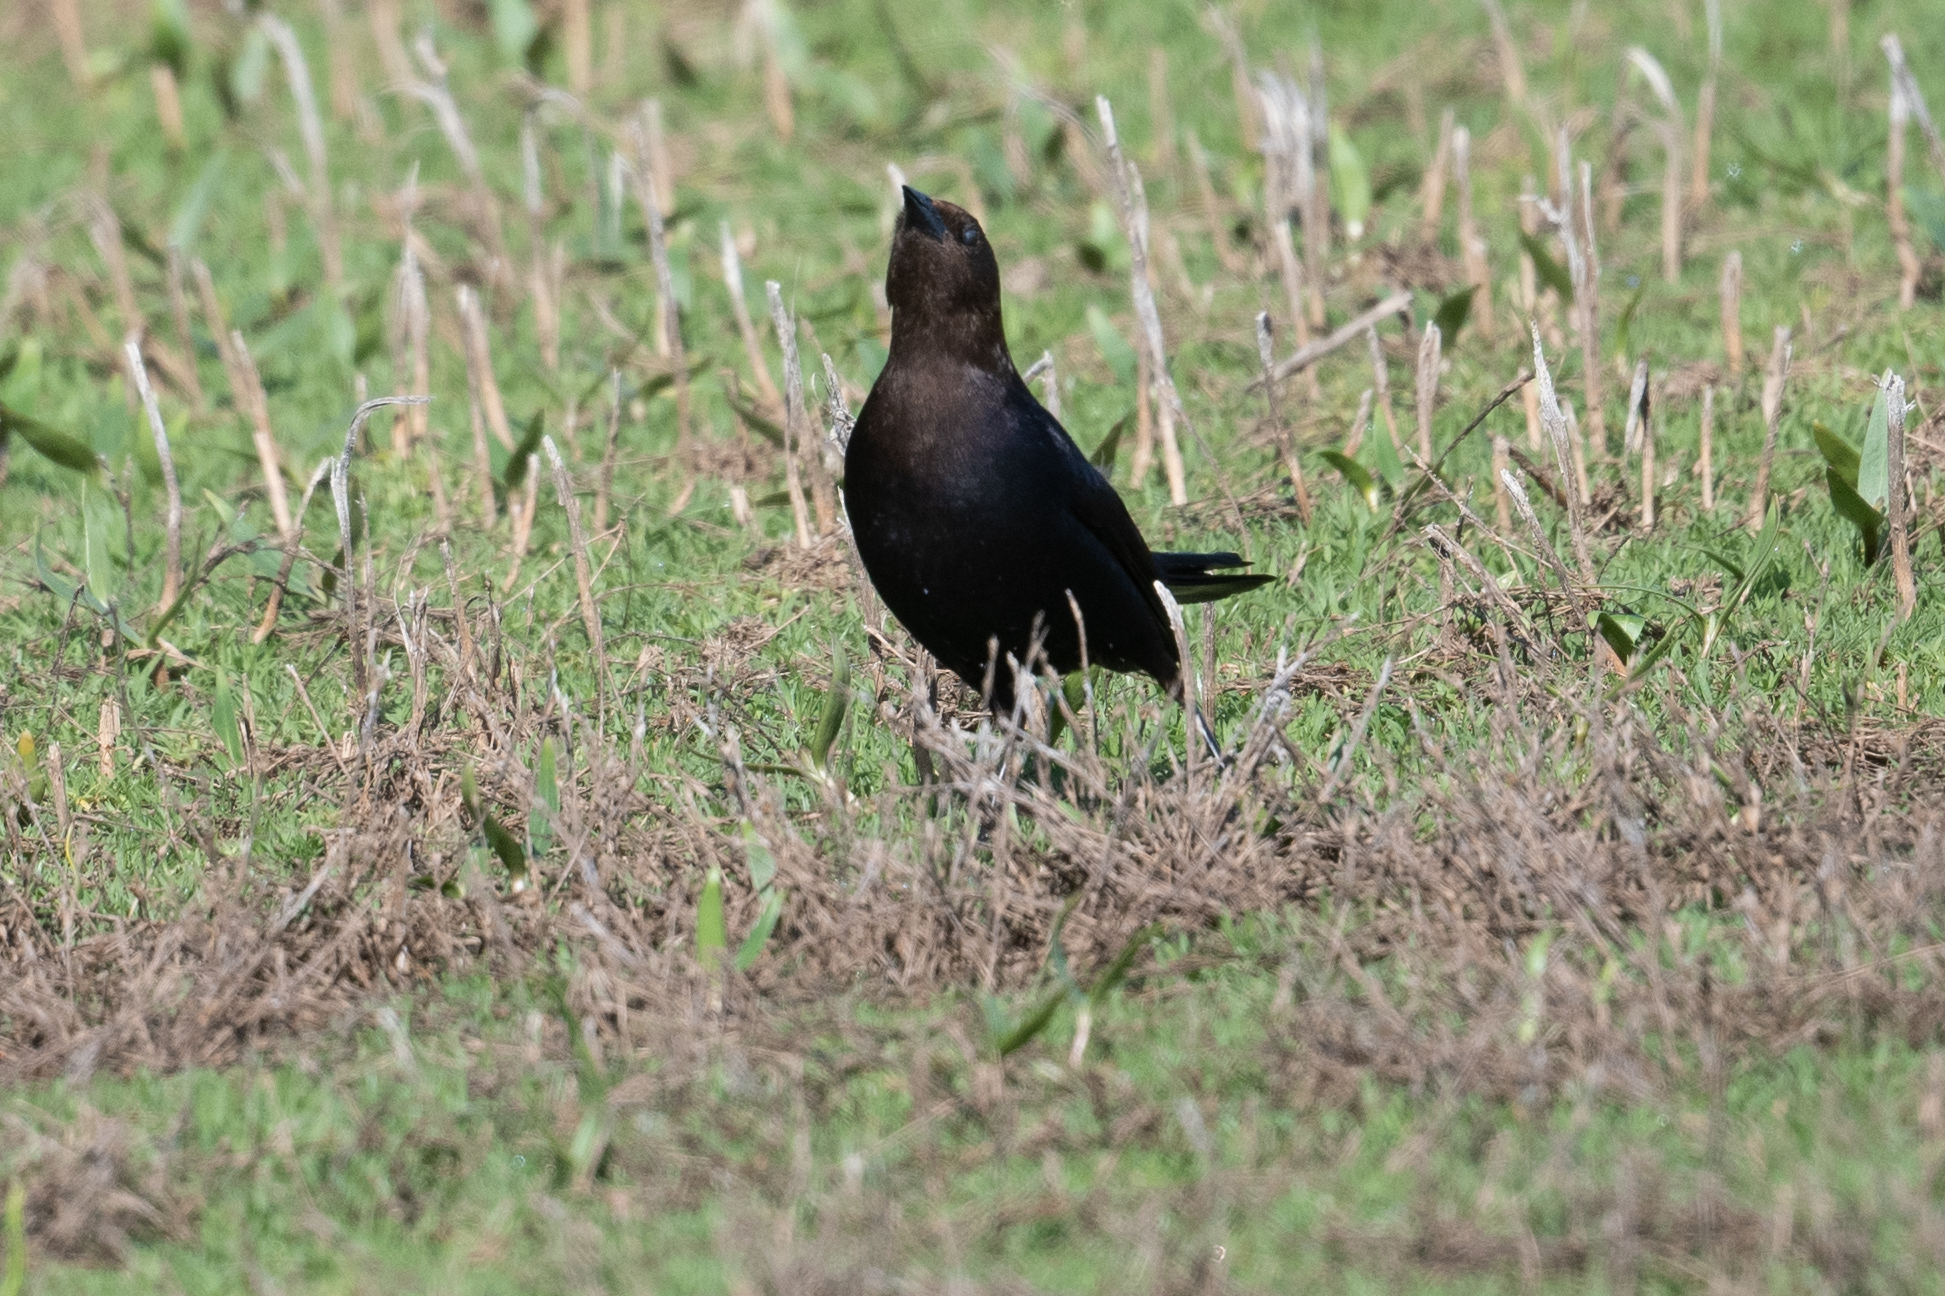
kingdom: Animalia
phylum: Chordata
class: Aves
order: Passeriformes
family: Icteridae
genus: Molothrus
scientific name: Molothrus ater
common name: Brown-headed cowbird
